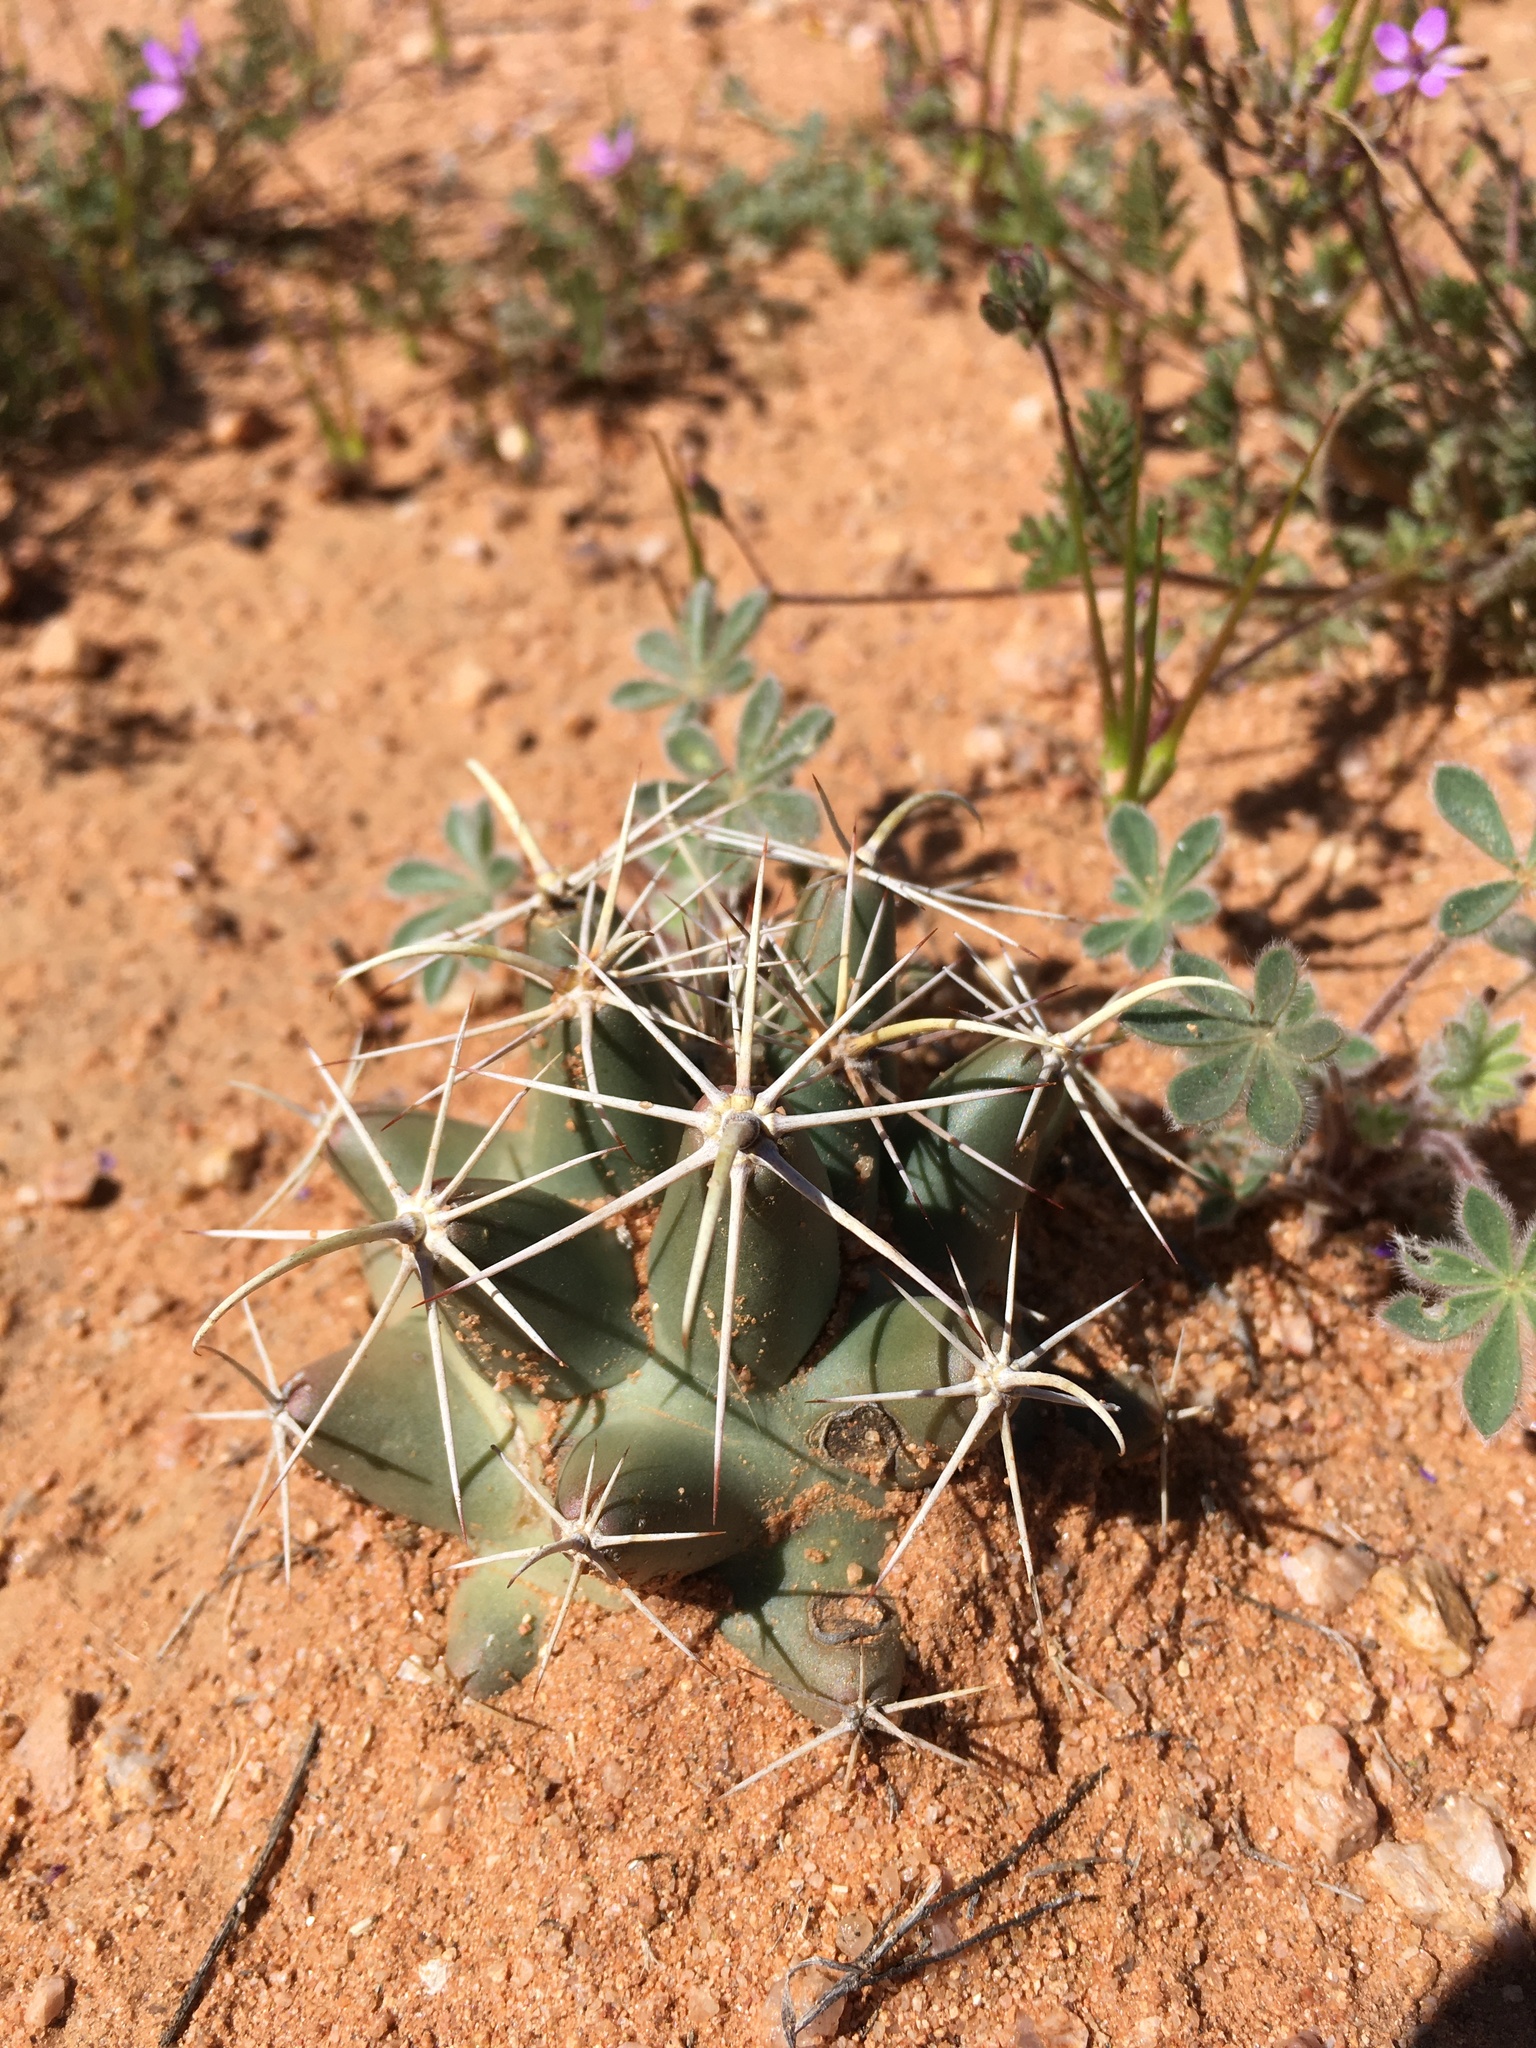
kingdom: Plantae
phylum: Tracheophyta
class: Magnoliopsida
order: Caryophyllales
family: Cactaceae
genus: Coryphantha
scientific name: Coryphantha robustispina
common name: Pima pineapple cactus
